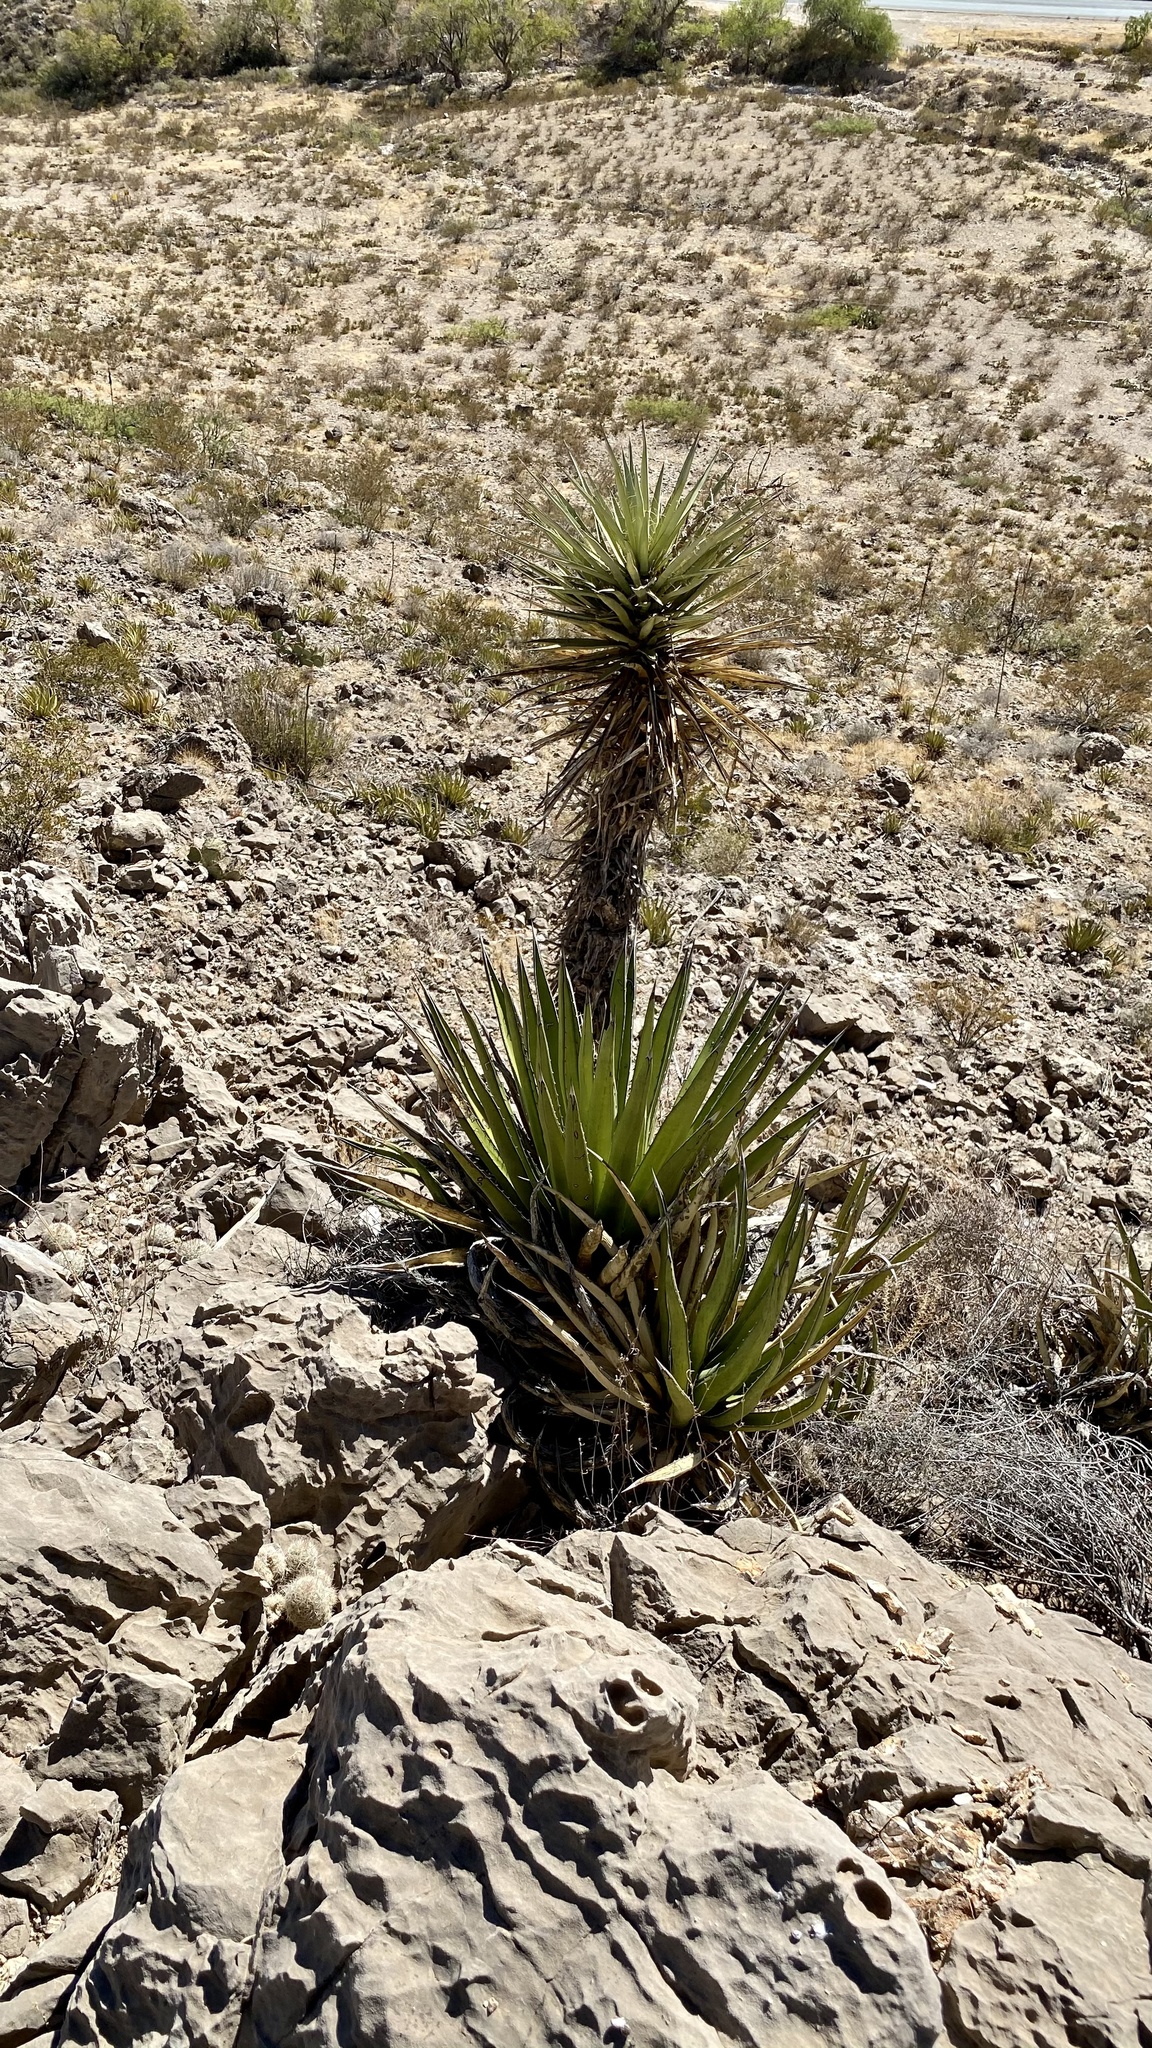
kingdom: Plantae
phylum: Tracheophyta
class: Liliopsida
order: Asparagales
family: Asparagaceae
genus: Yucca
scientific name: Yucca treculiana
